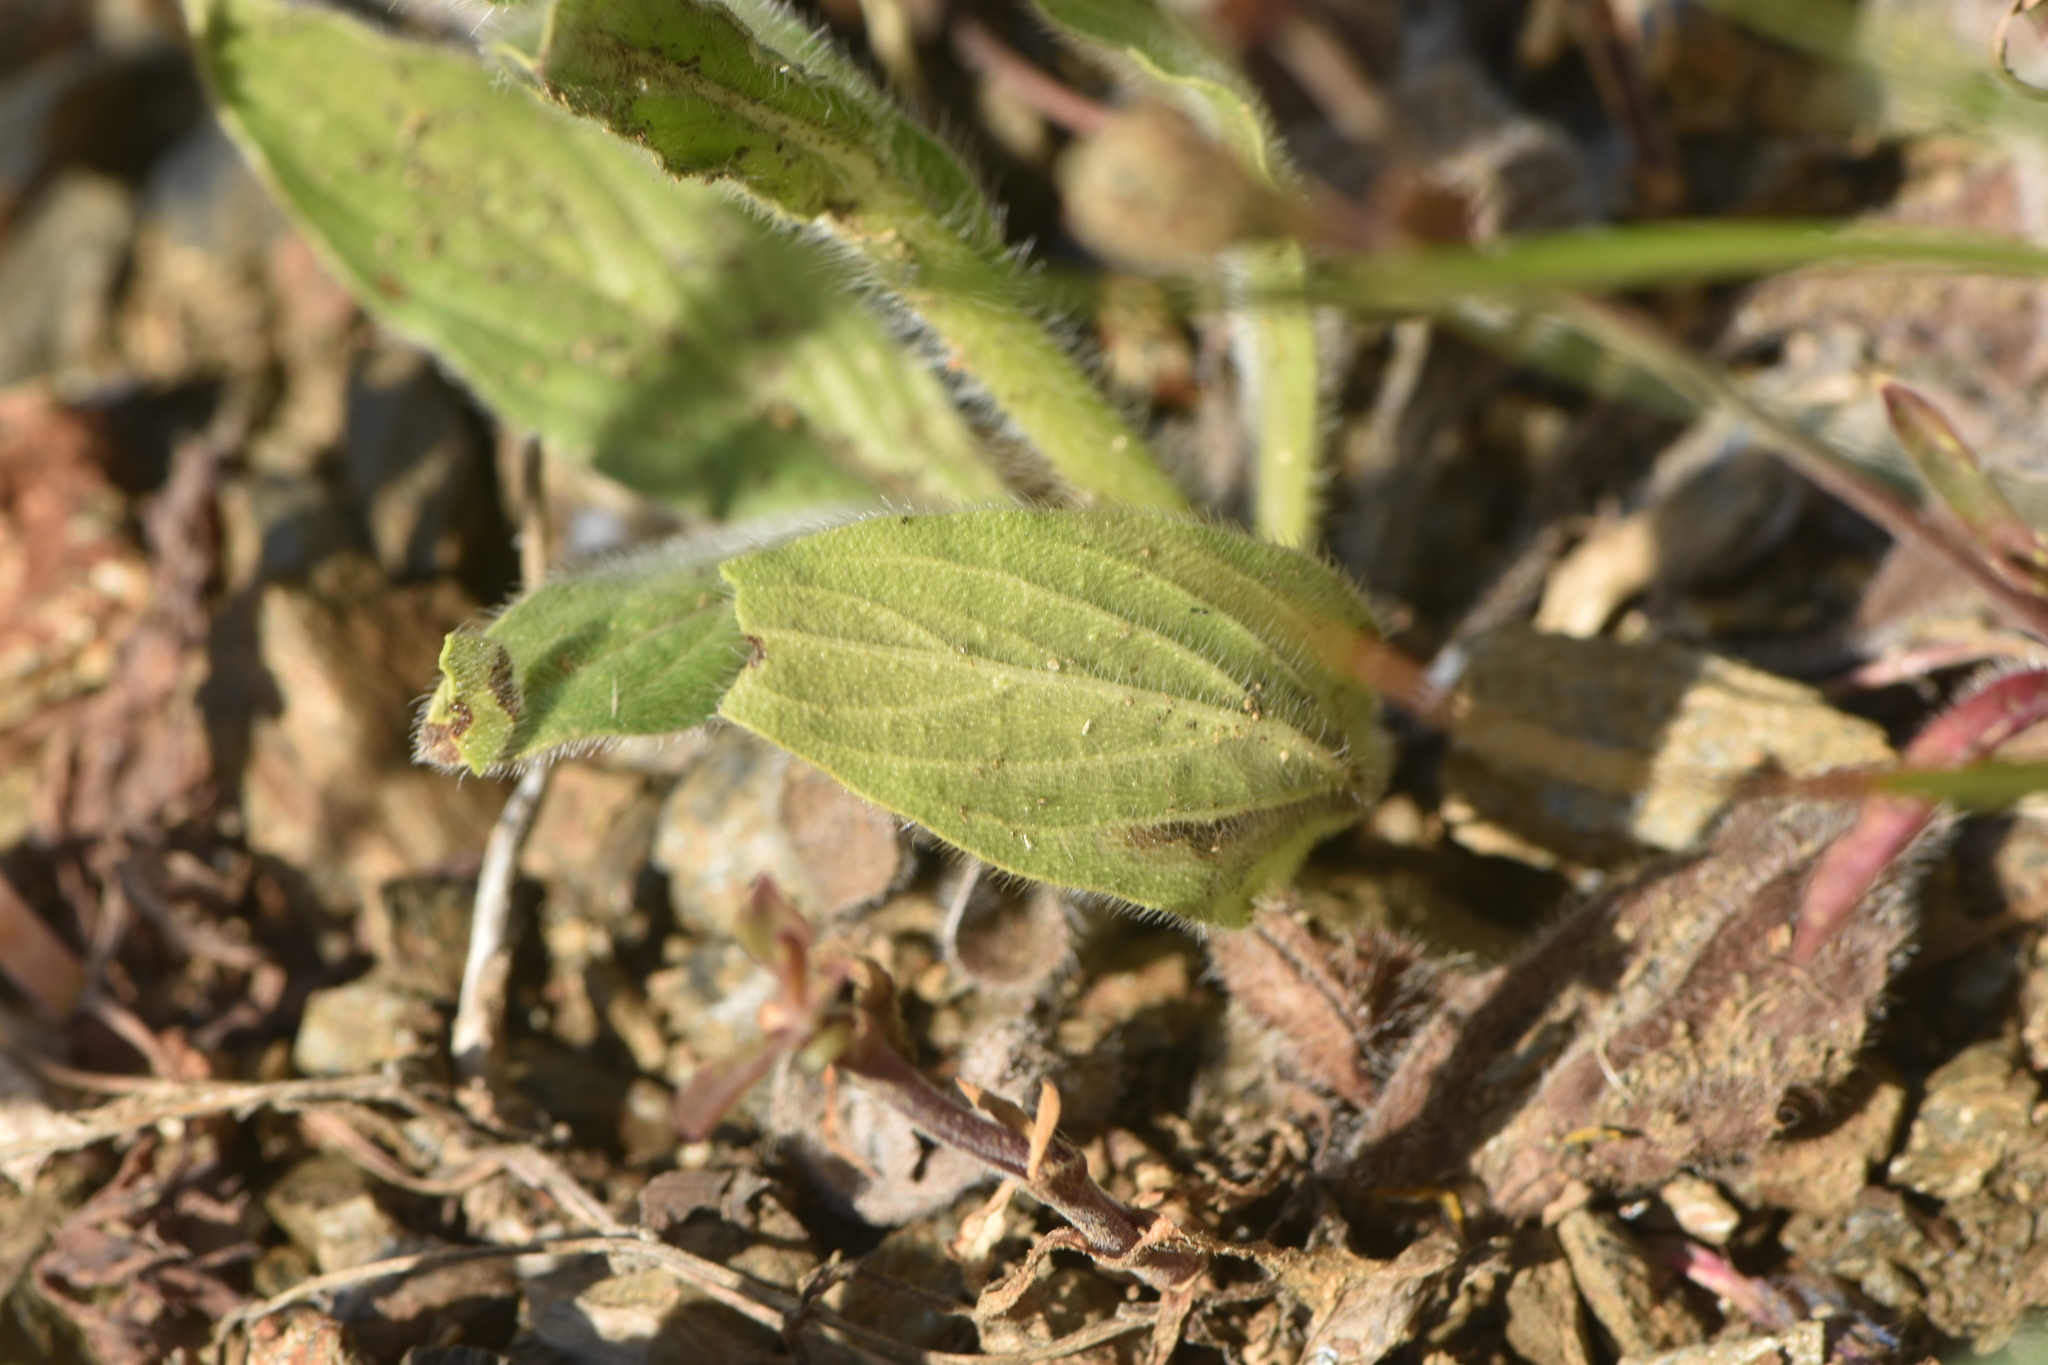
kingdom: Plantae
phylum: Tracheophyta
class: Magnoliopsida
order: Boraginales
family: Boraginaceae
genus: Echium
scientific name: Echium plantagineum
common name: Purple viper's-bugloss
